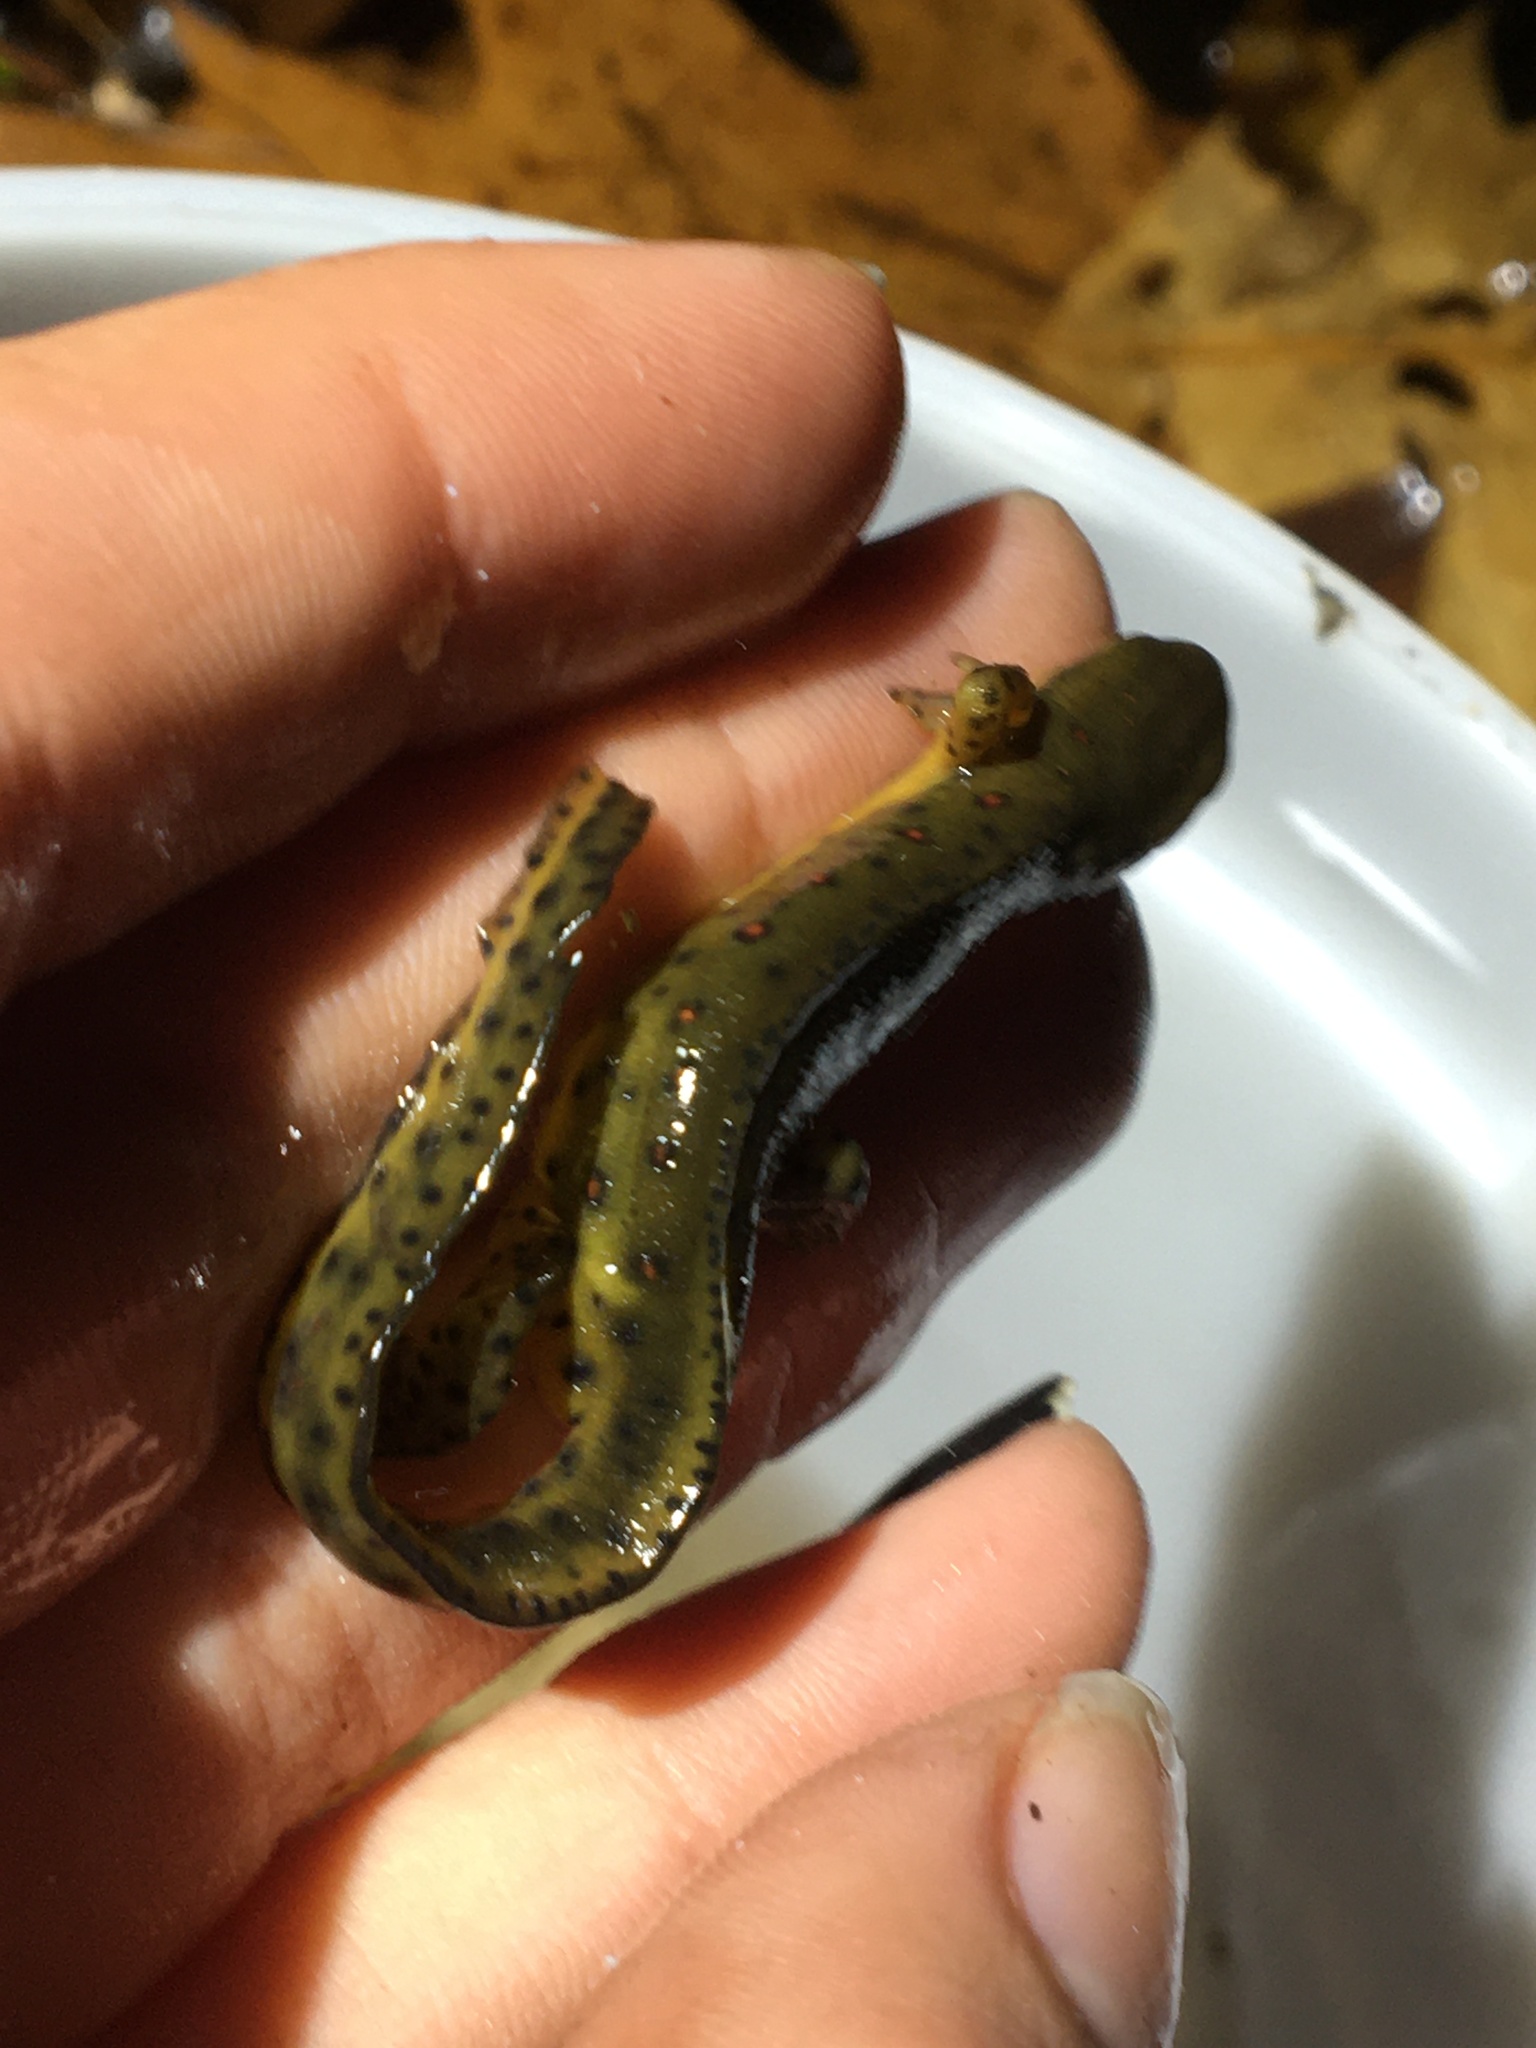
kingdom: Animalia
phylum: Chordata
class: Amphibia
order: Caudata
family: Salamandridae
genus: Notophthalmus
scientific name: Notophthalmus viridescens
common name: Eastern newt
